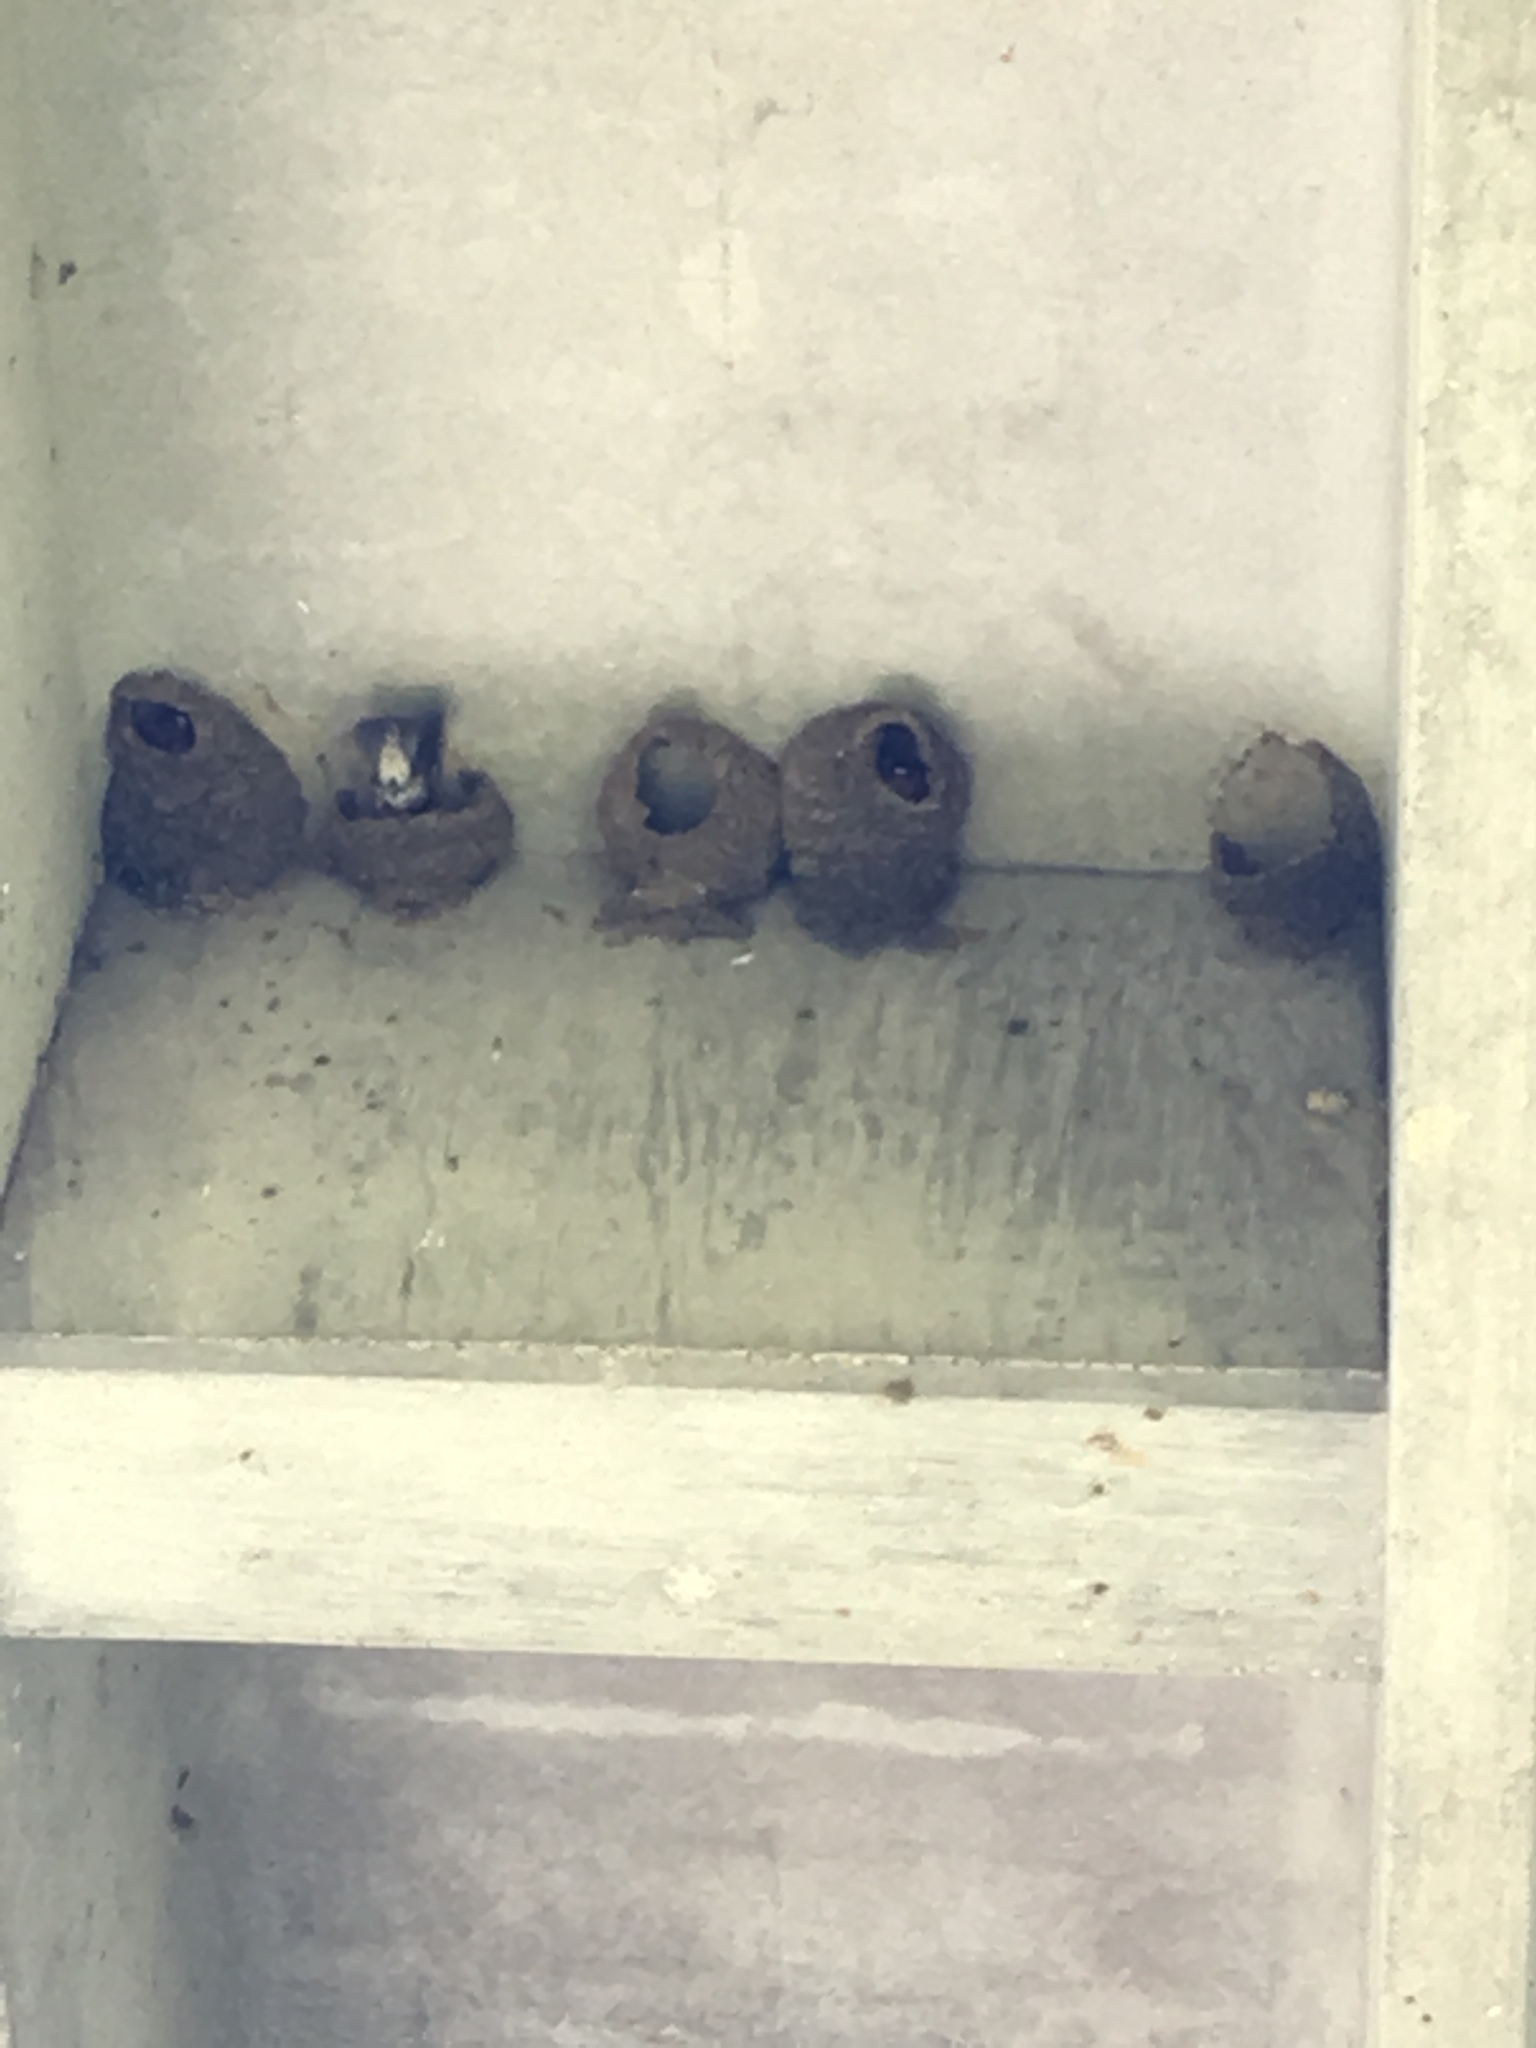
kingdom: Animalia
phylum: Chordata
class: Aves
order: Passeriformes
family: Hirundinidae
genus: Petrochelidon
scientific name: Petrochelidon pyrrhonota
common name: American cliff swallow
